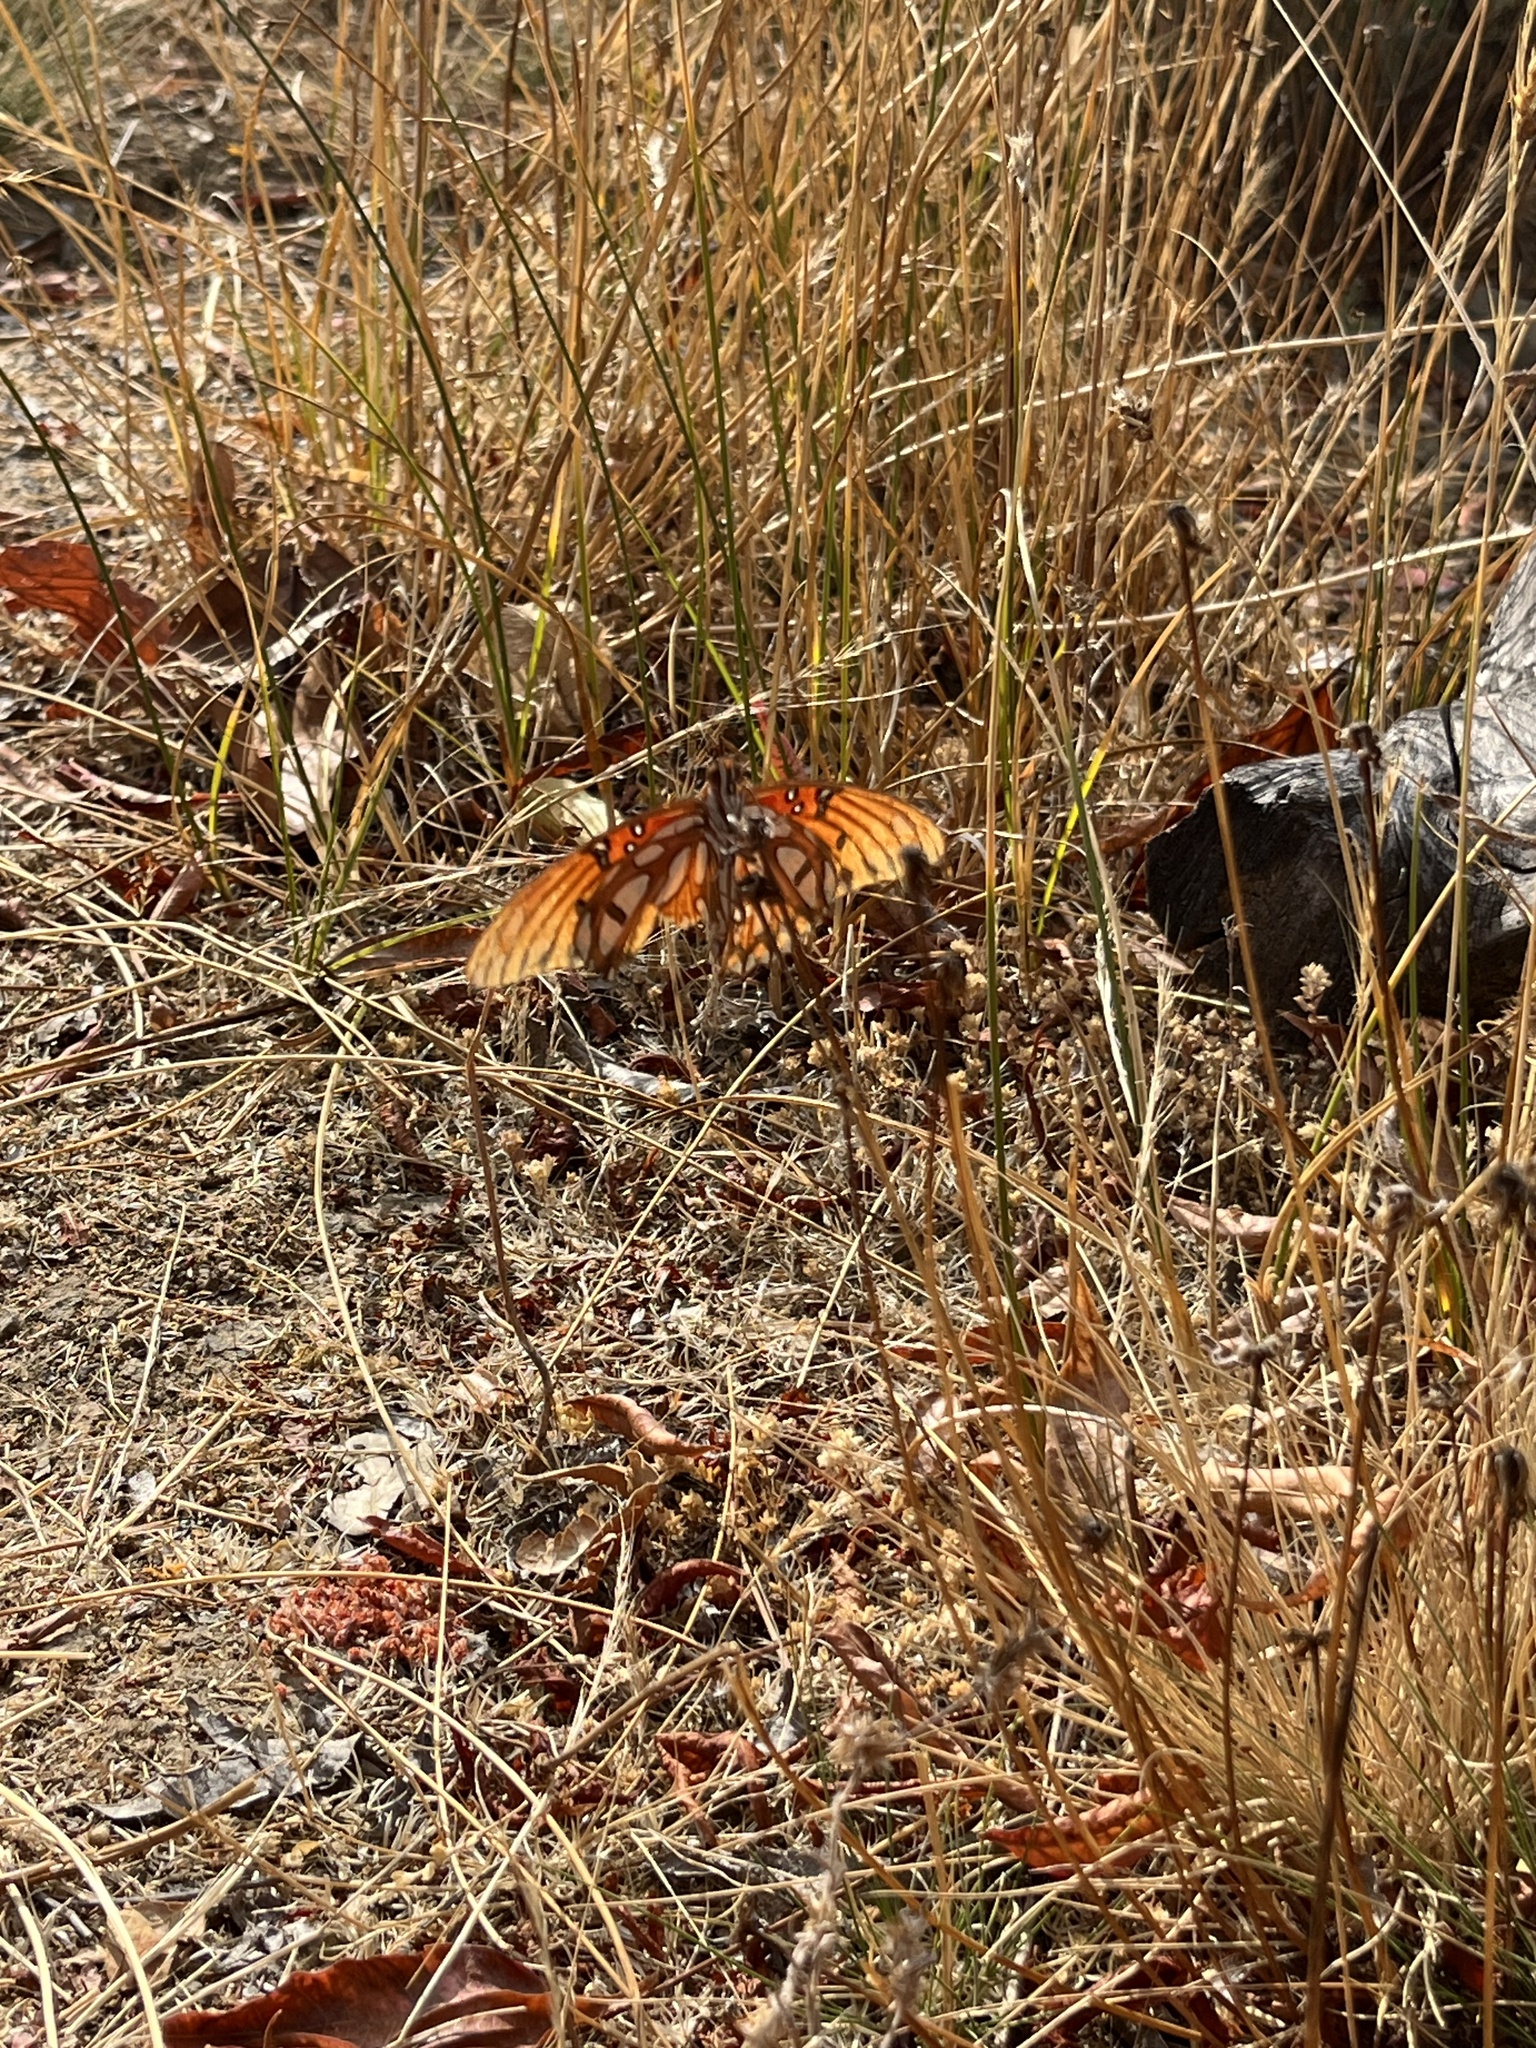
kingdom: Animalia
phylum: Arthropoda
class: Insecta
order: Lepidoptera
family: Nymphalidae
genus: Dione
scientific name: Dione vanillae
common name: Gulf fritillary
